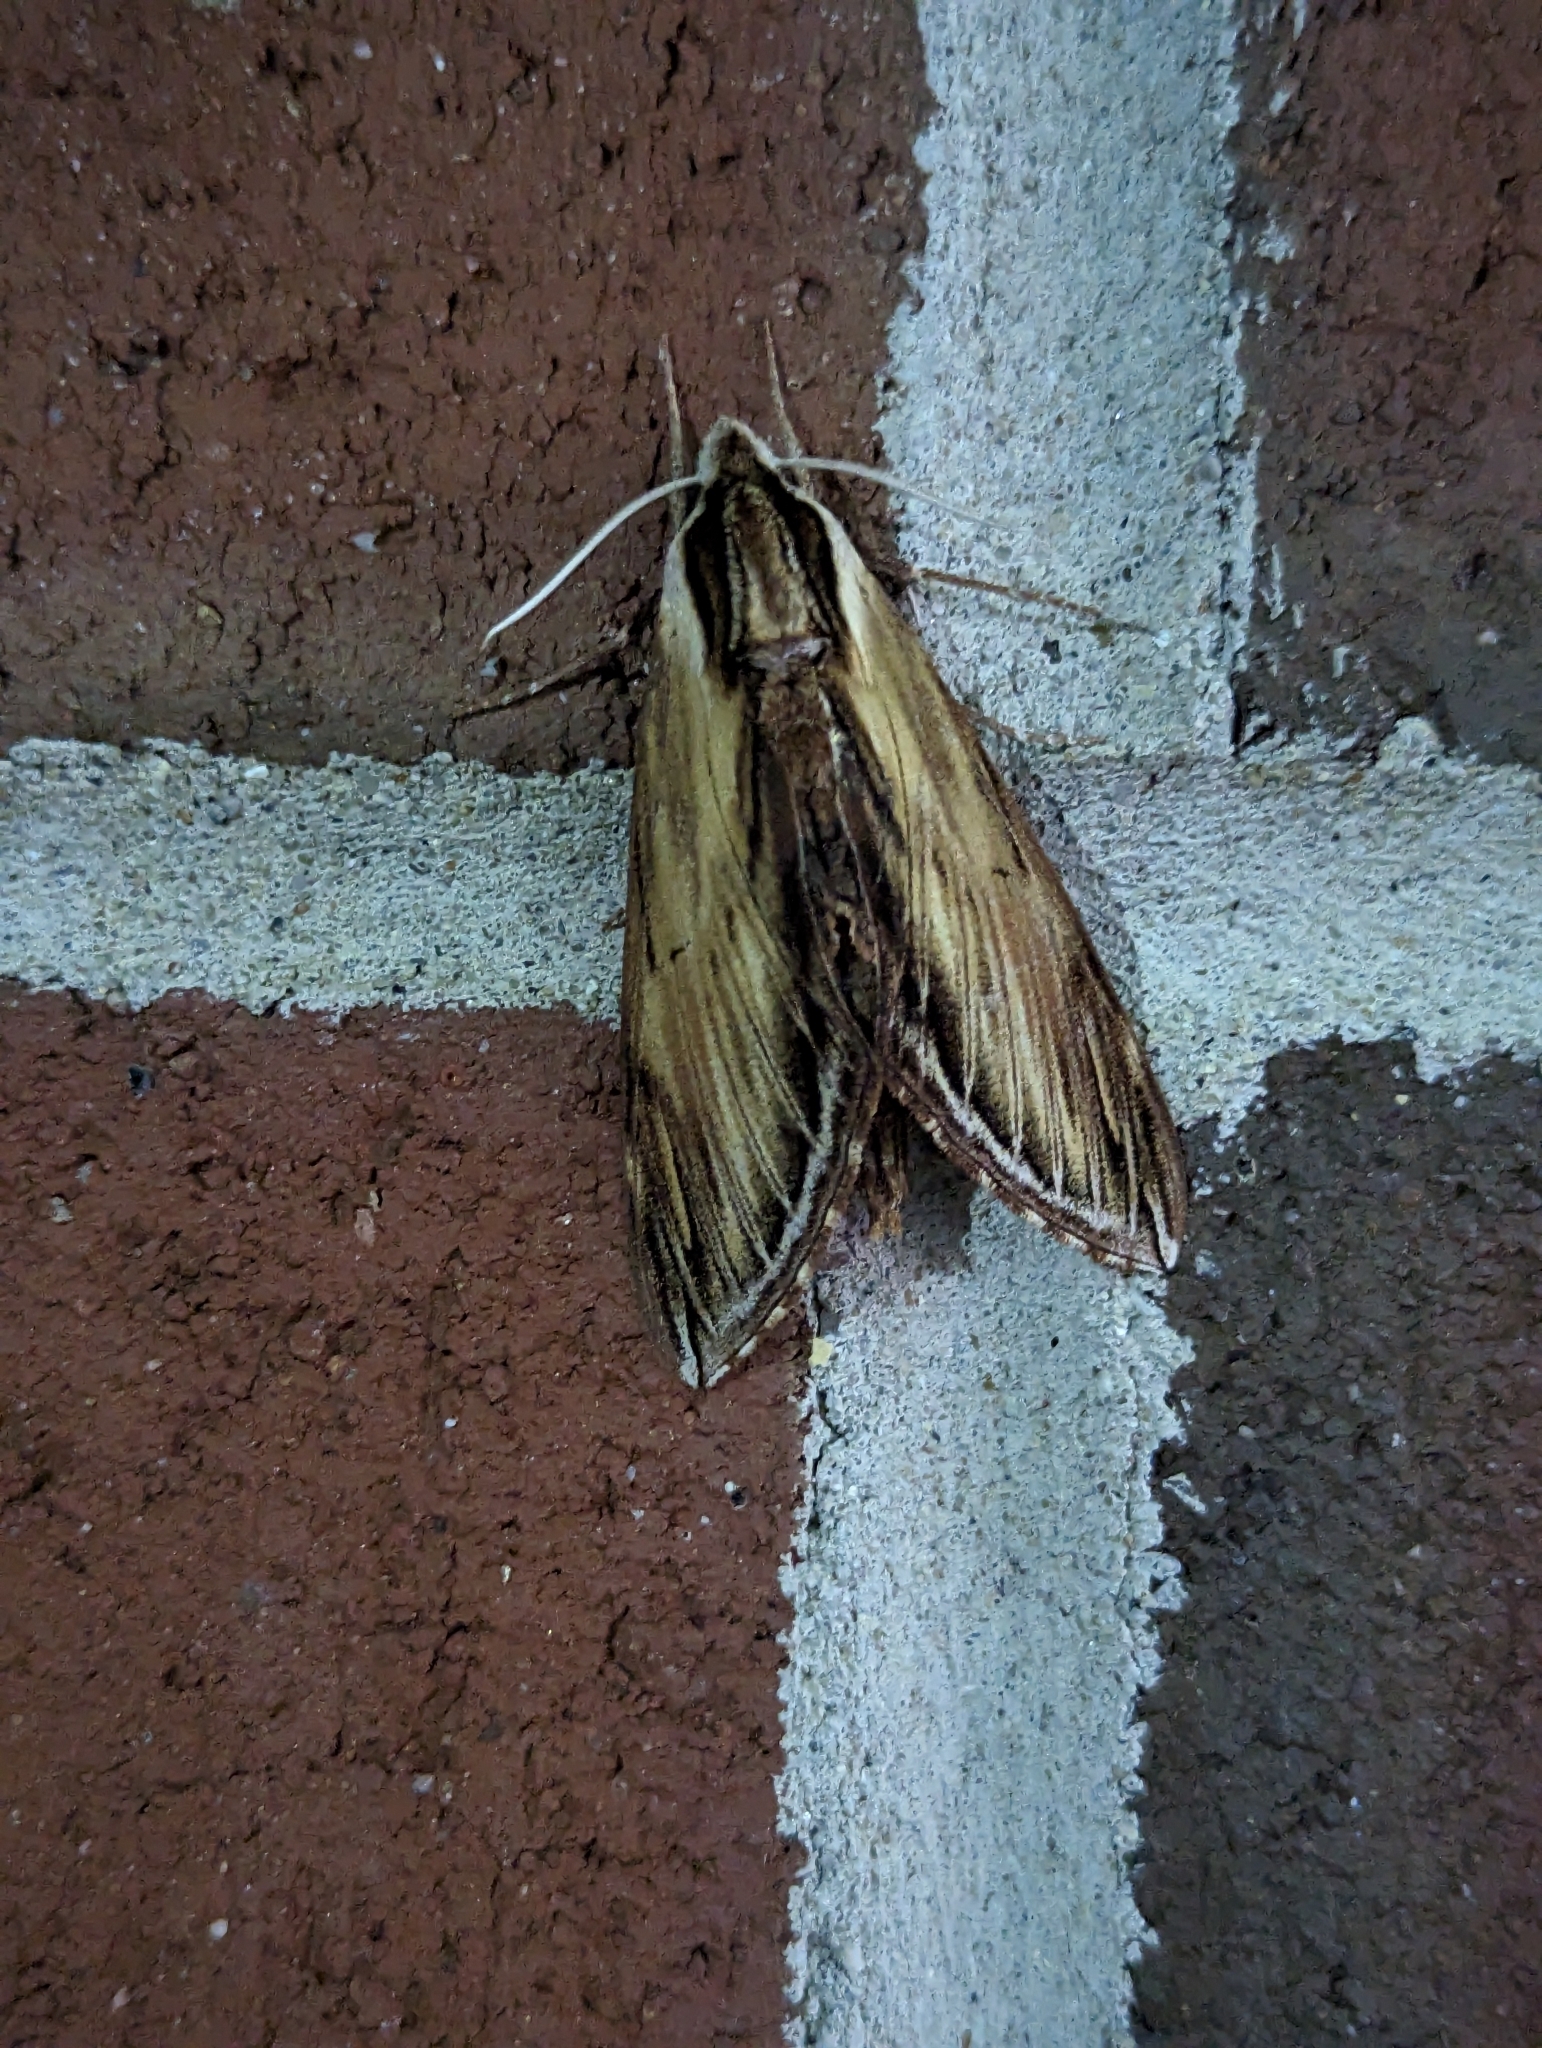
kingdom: Animalia
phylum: Arthropoda
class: Insecta
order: Lepidoptera
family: Sphingidae
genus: Sphinx
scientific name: Sphinx kalmiae
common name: Laurel sphinx
